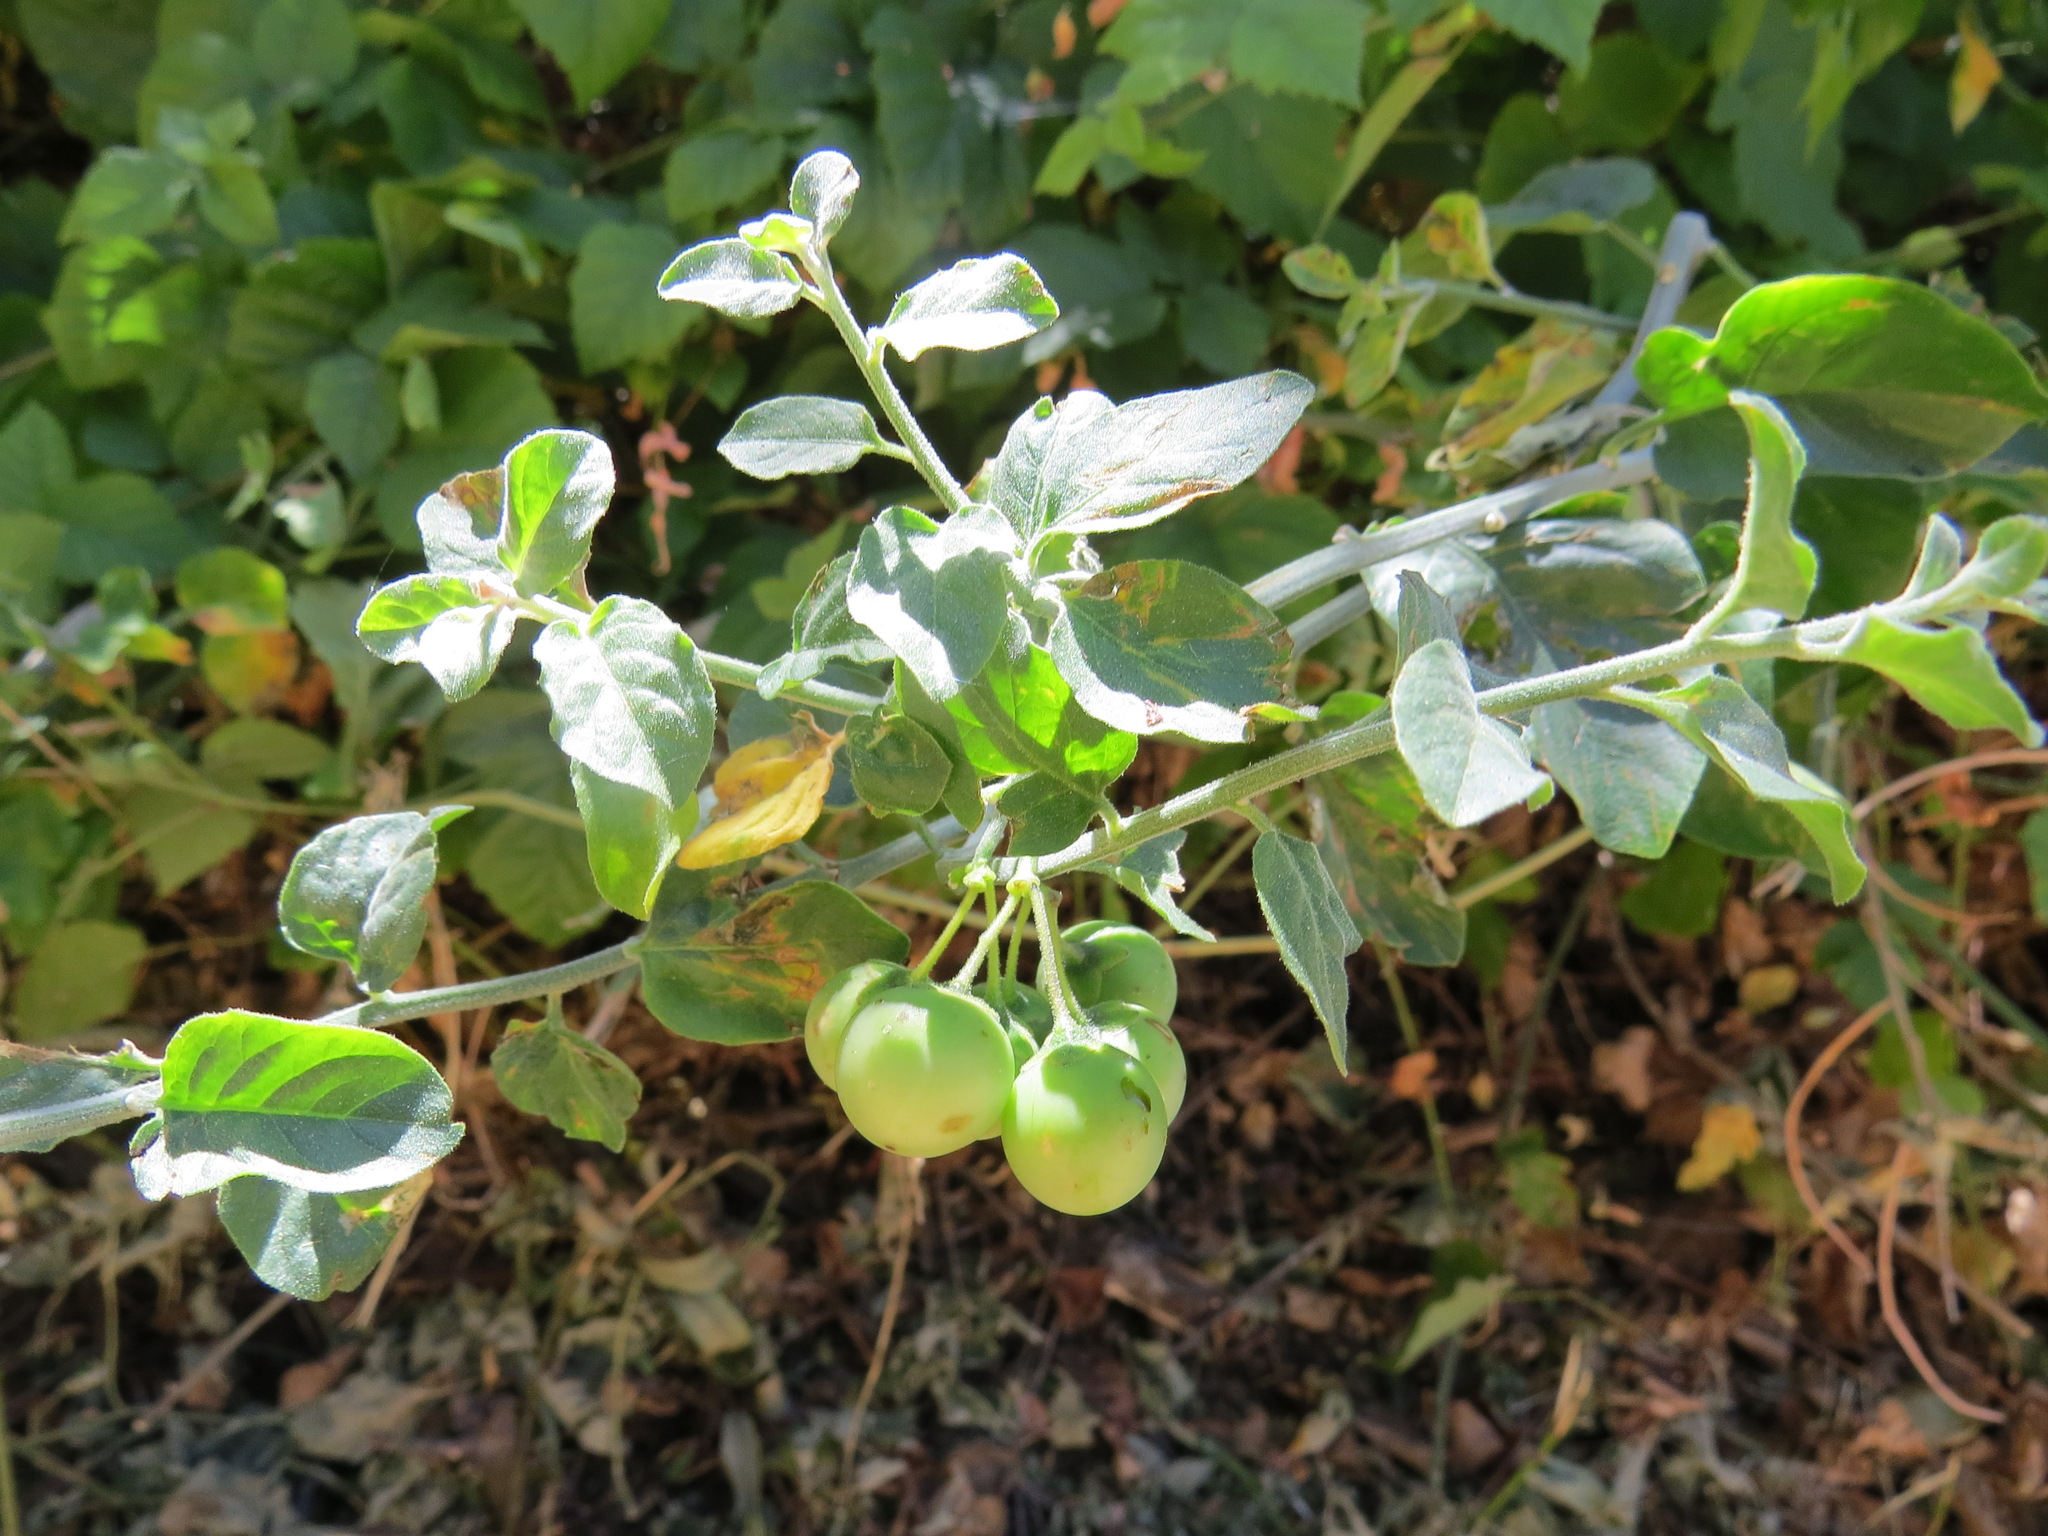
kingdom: Plantae
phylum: Tracheophyta
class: Magnoliopsida
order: Solanales
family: Solanaceae
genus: Solanum
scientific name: Solanum umbelliferum
